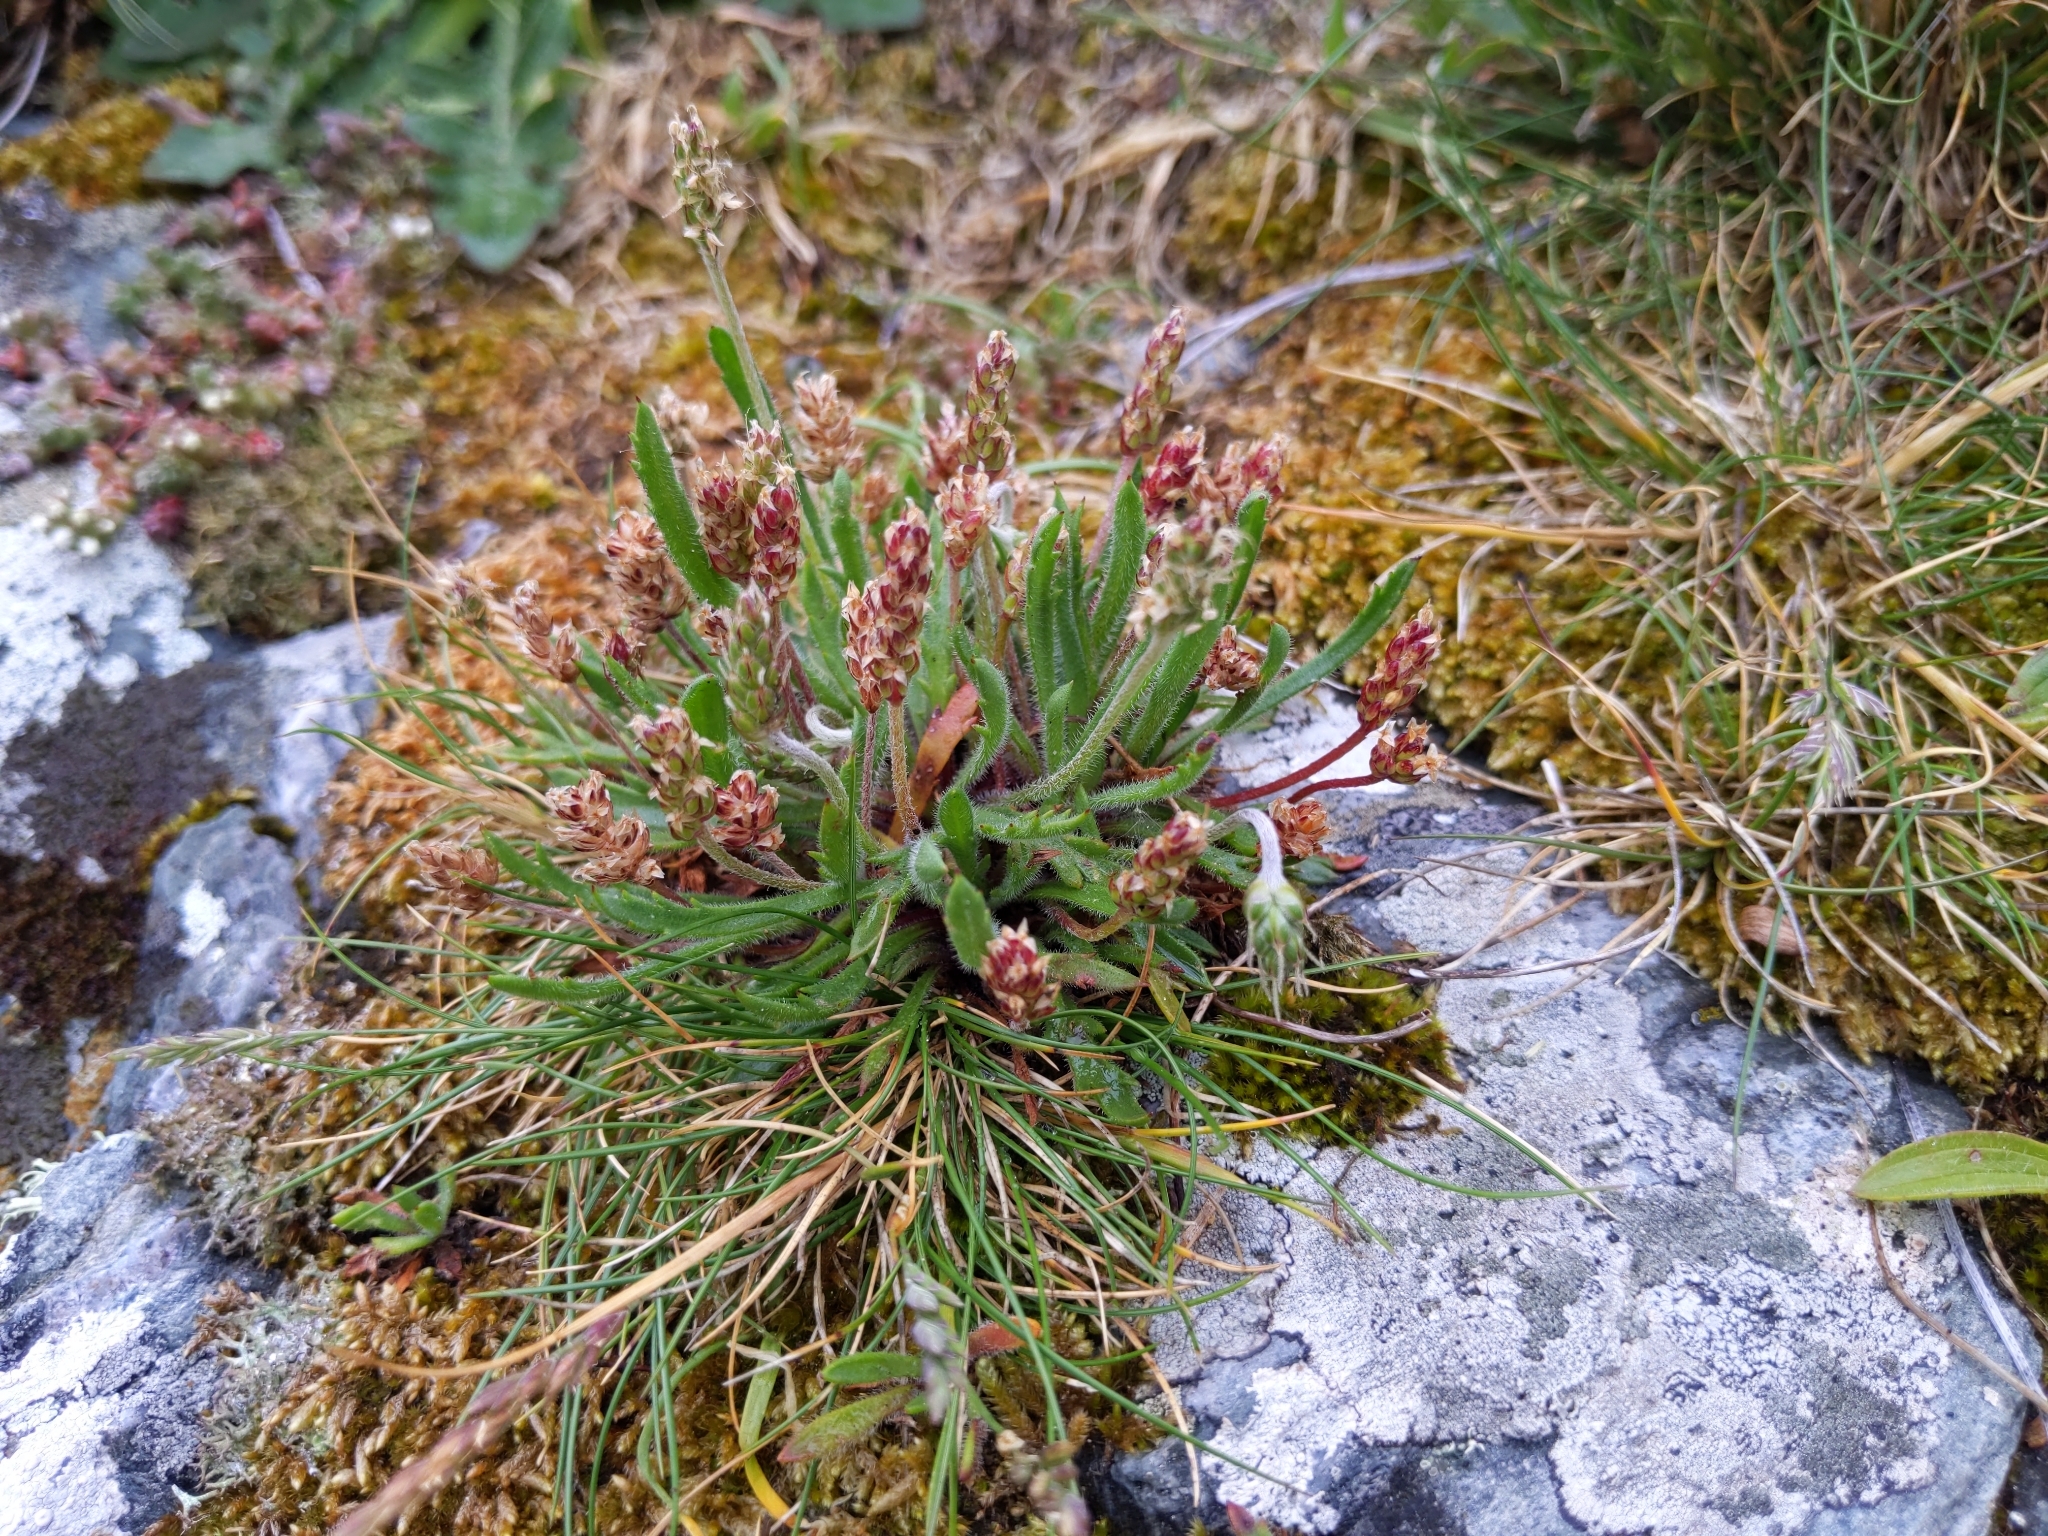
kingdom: Plantae
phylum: Tracheophyta
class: Magnoliopsida
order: Lamiales
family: Plantaginaceae
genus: Plantago
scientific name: Plantago coronopus
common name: Buck's-horn plantain
